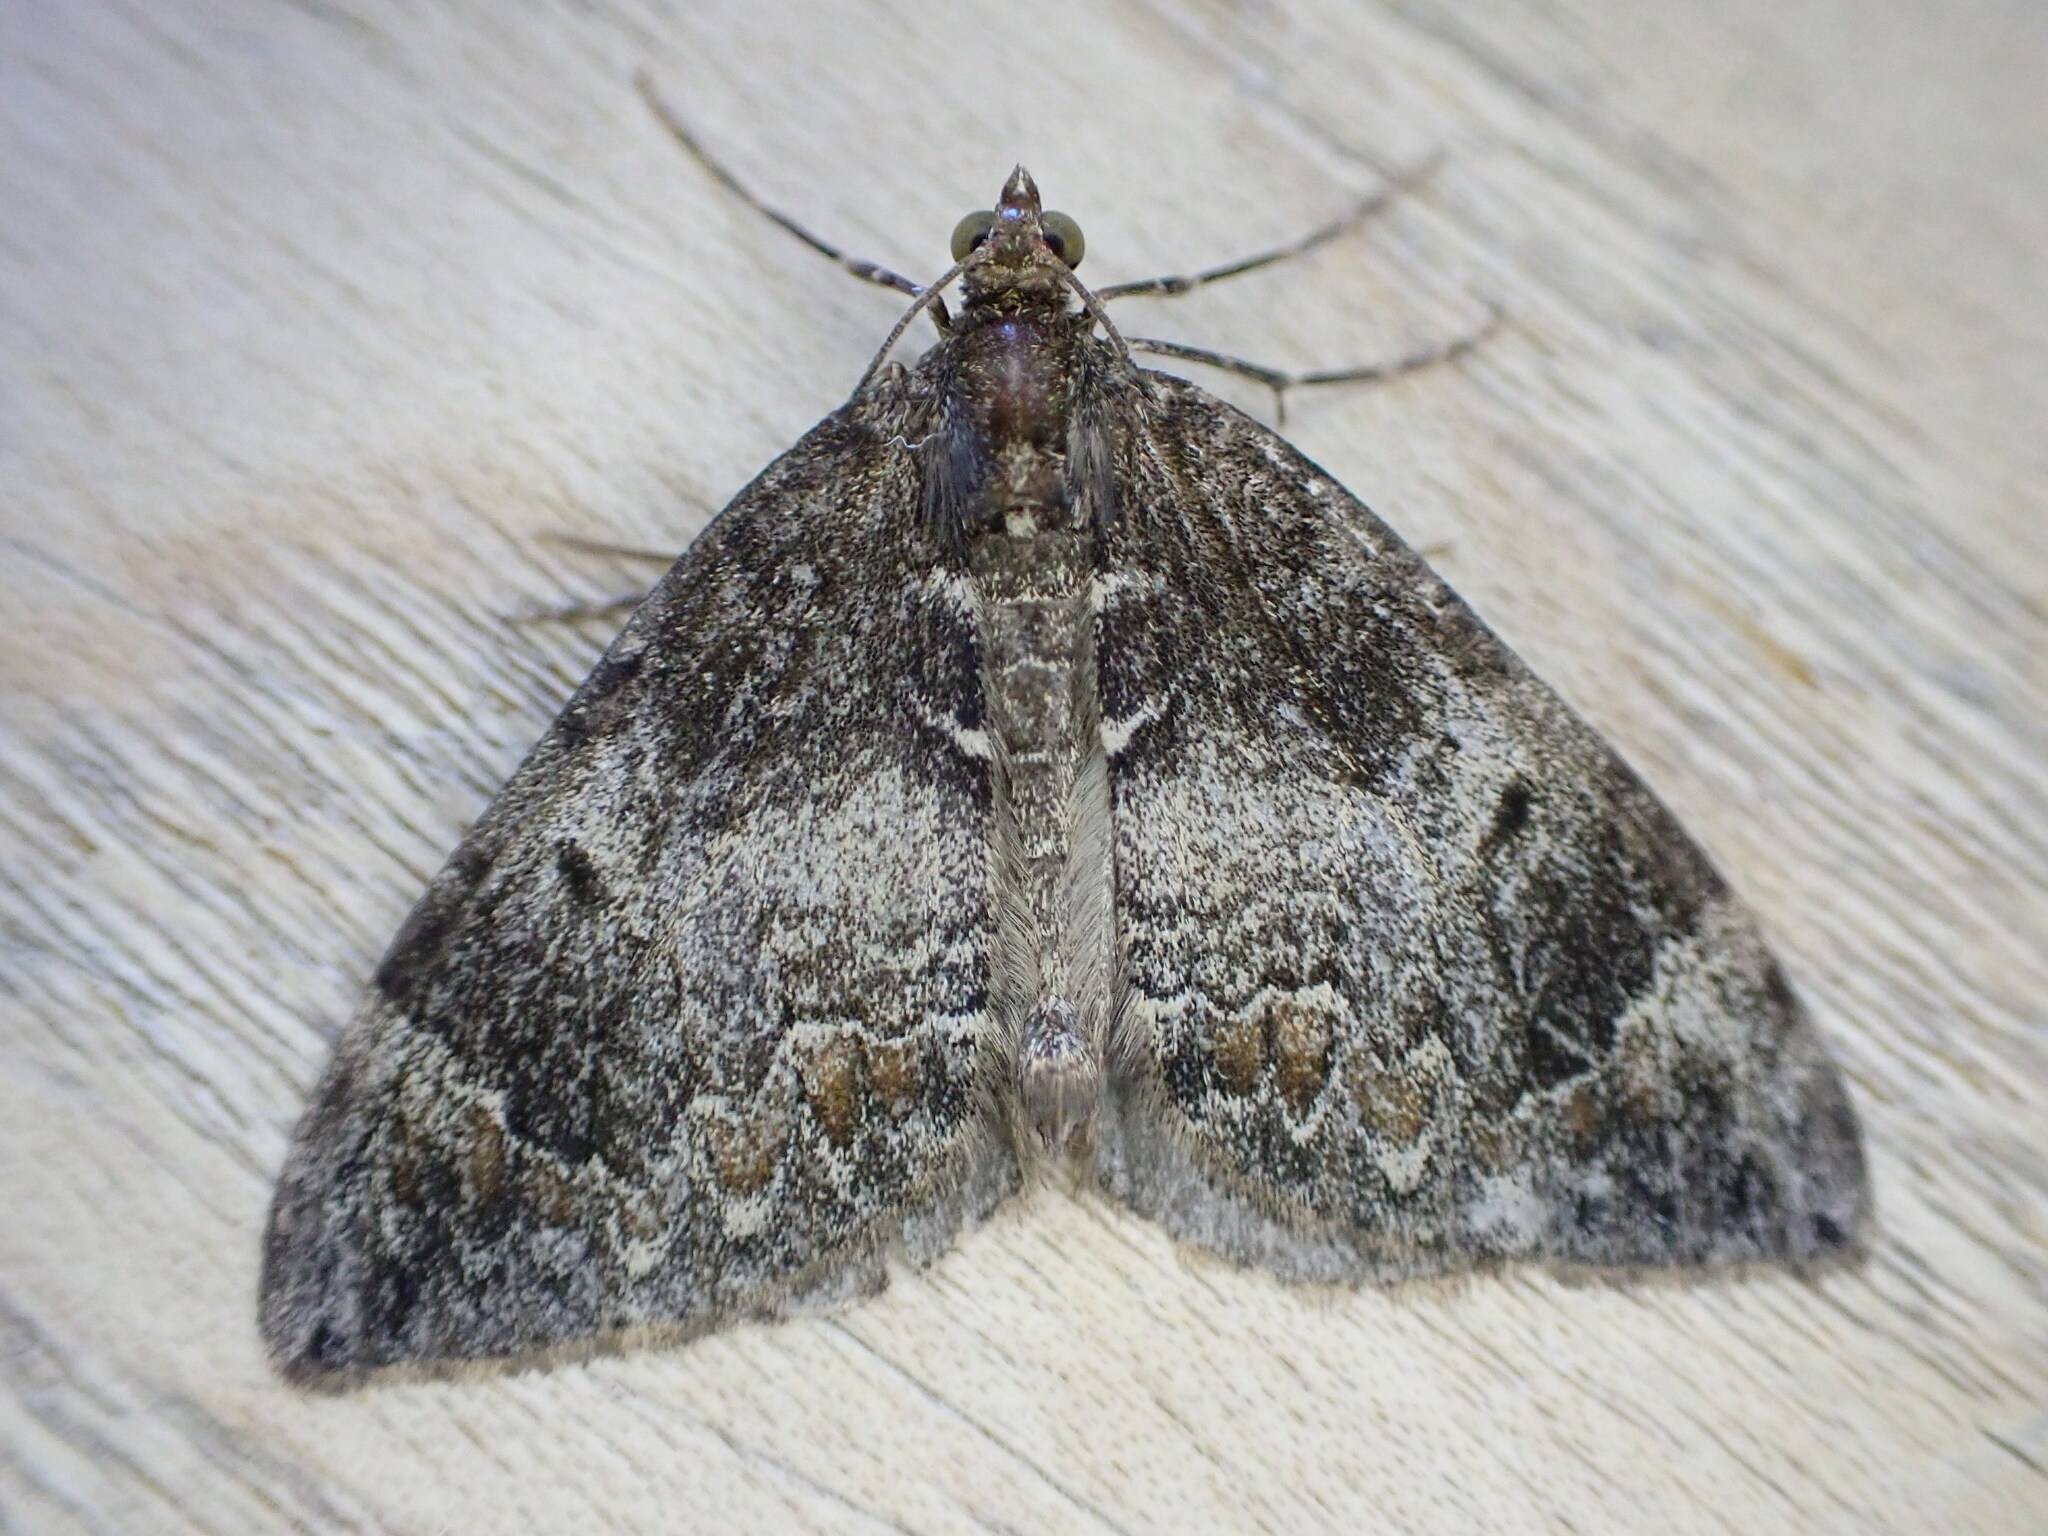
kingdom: Animalia
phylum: Arthropoda
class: Insecta
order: Lepidoptera
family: Geometridae
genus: Dysstroma
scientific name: Dysstroma truncata
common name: Common marbled carpet
